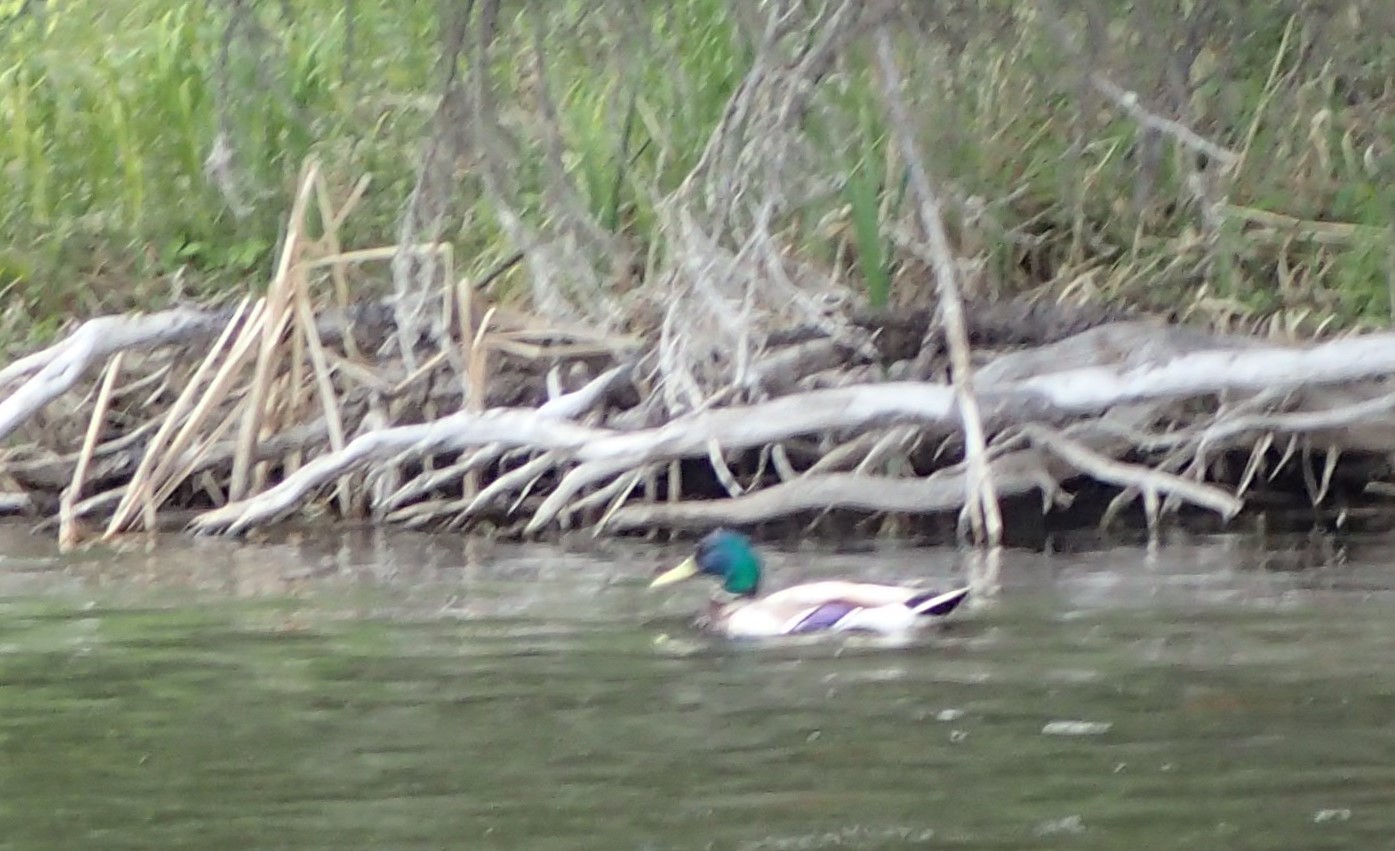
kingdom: Animalia
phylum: Chordata
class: Aves
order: Anseriformes
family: Anatidae
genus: Anas
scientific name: Anas platyrhynchos
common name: Mallard
